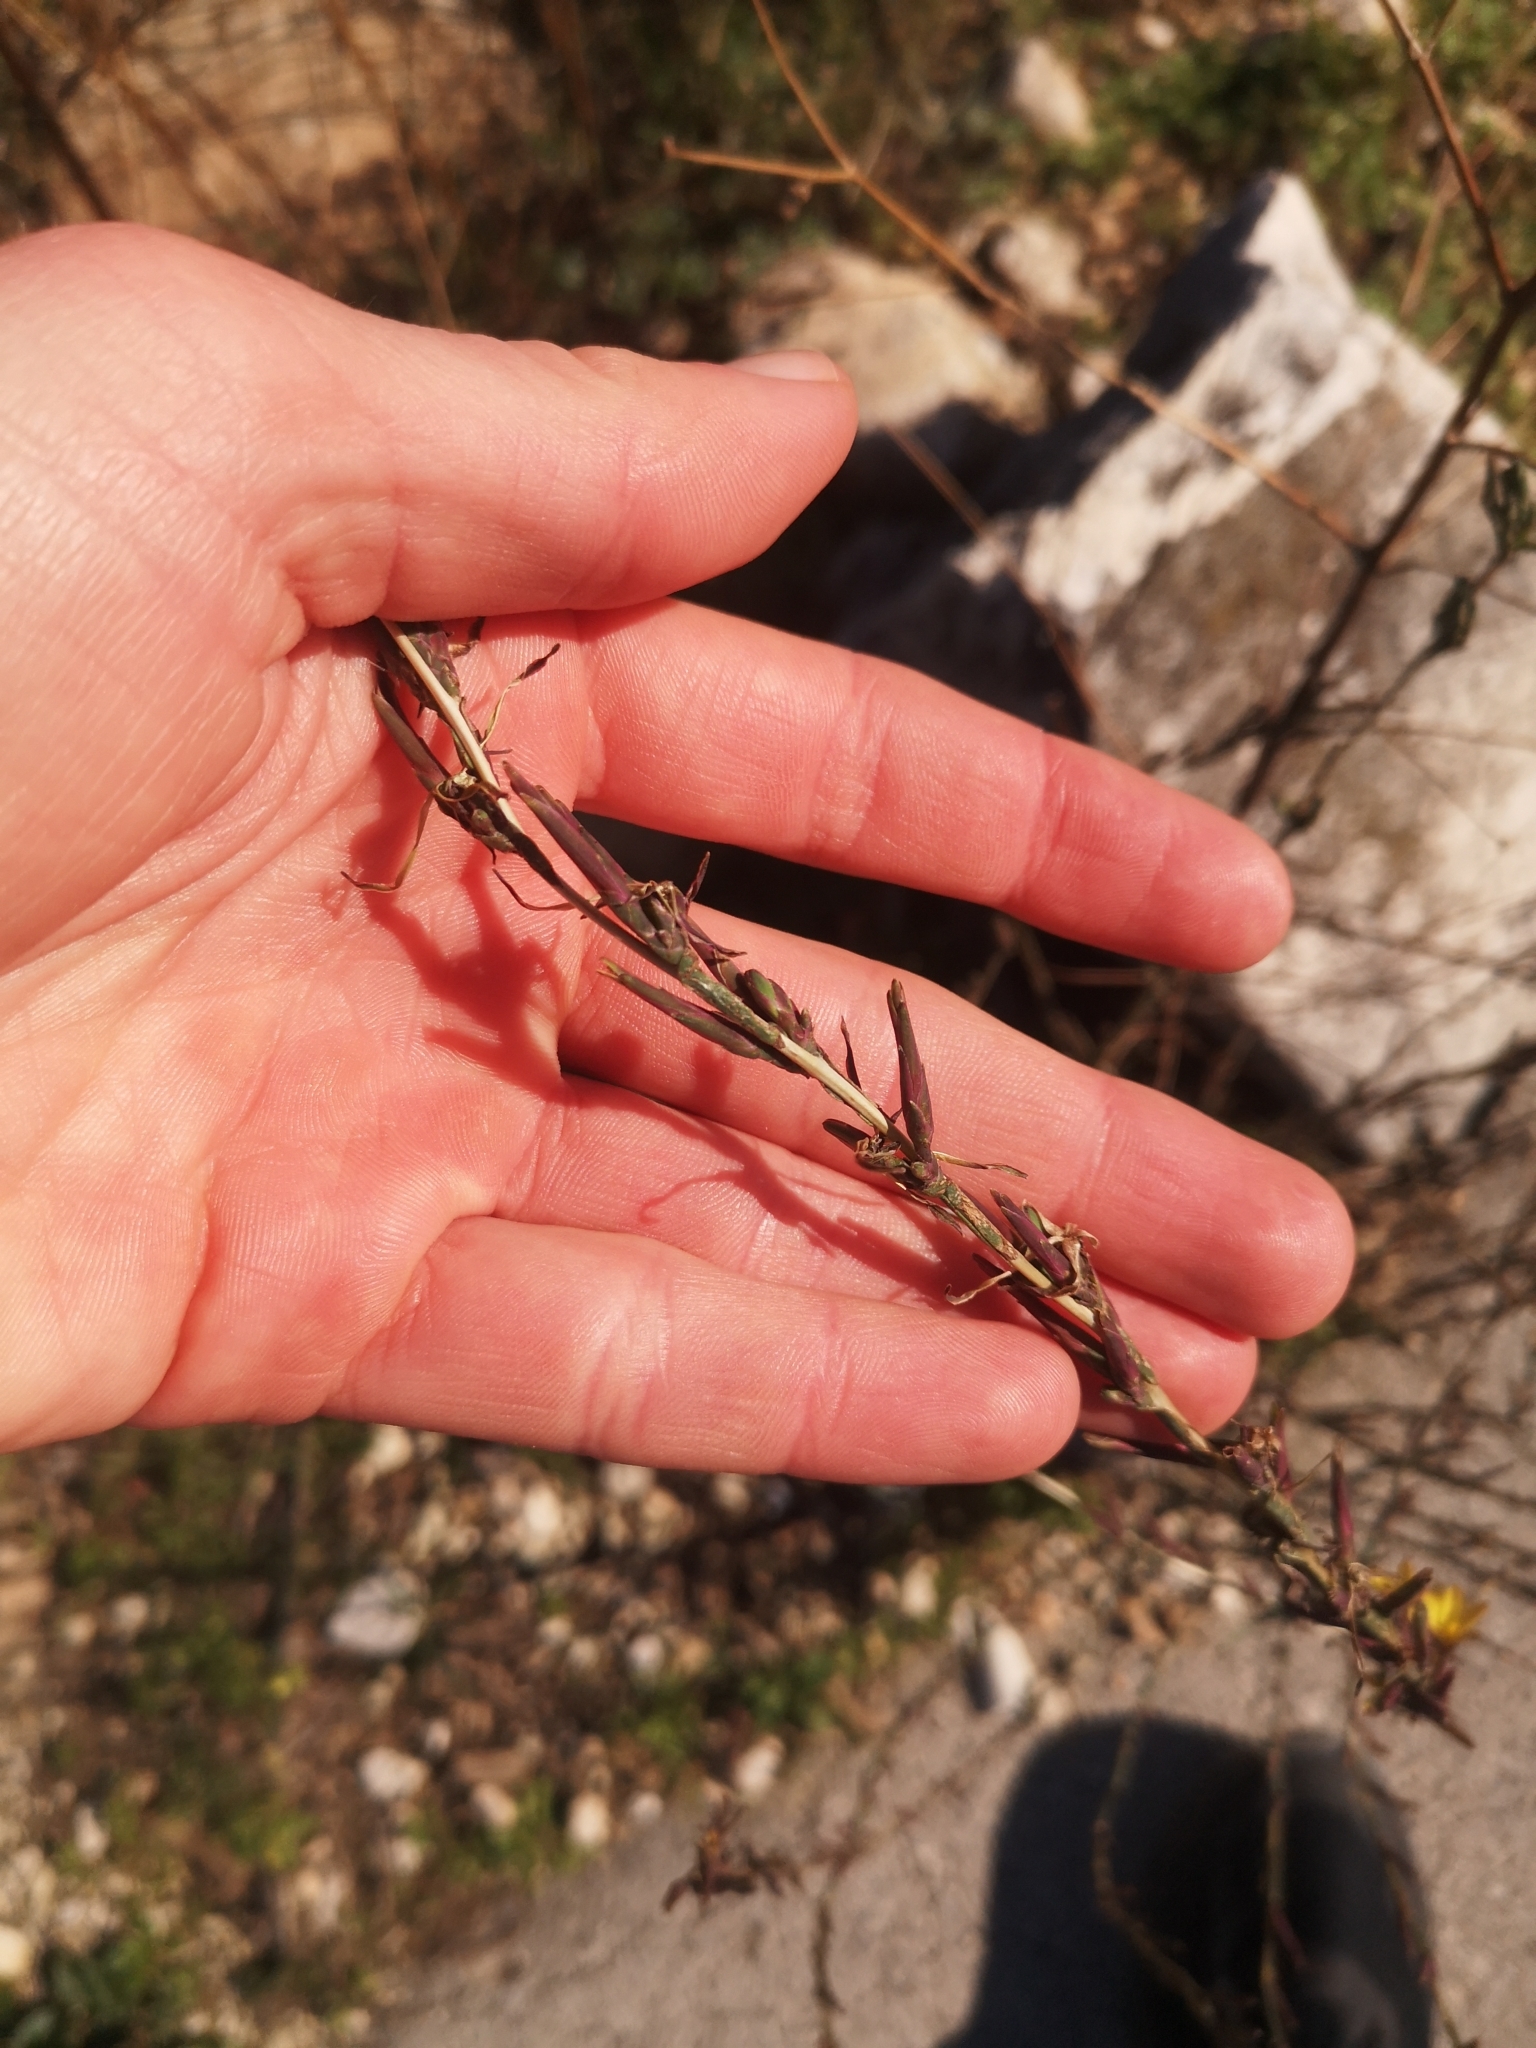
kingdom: Plantae
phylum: Tracheophyta
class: Magnoliopsida
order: Asterales
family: Asteraceae
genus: Lactuca
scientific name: Lactuca viminea
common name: Pliant lettuce
